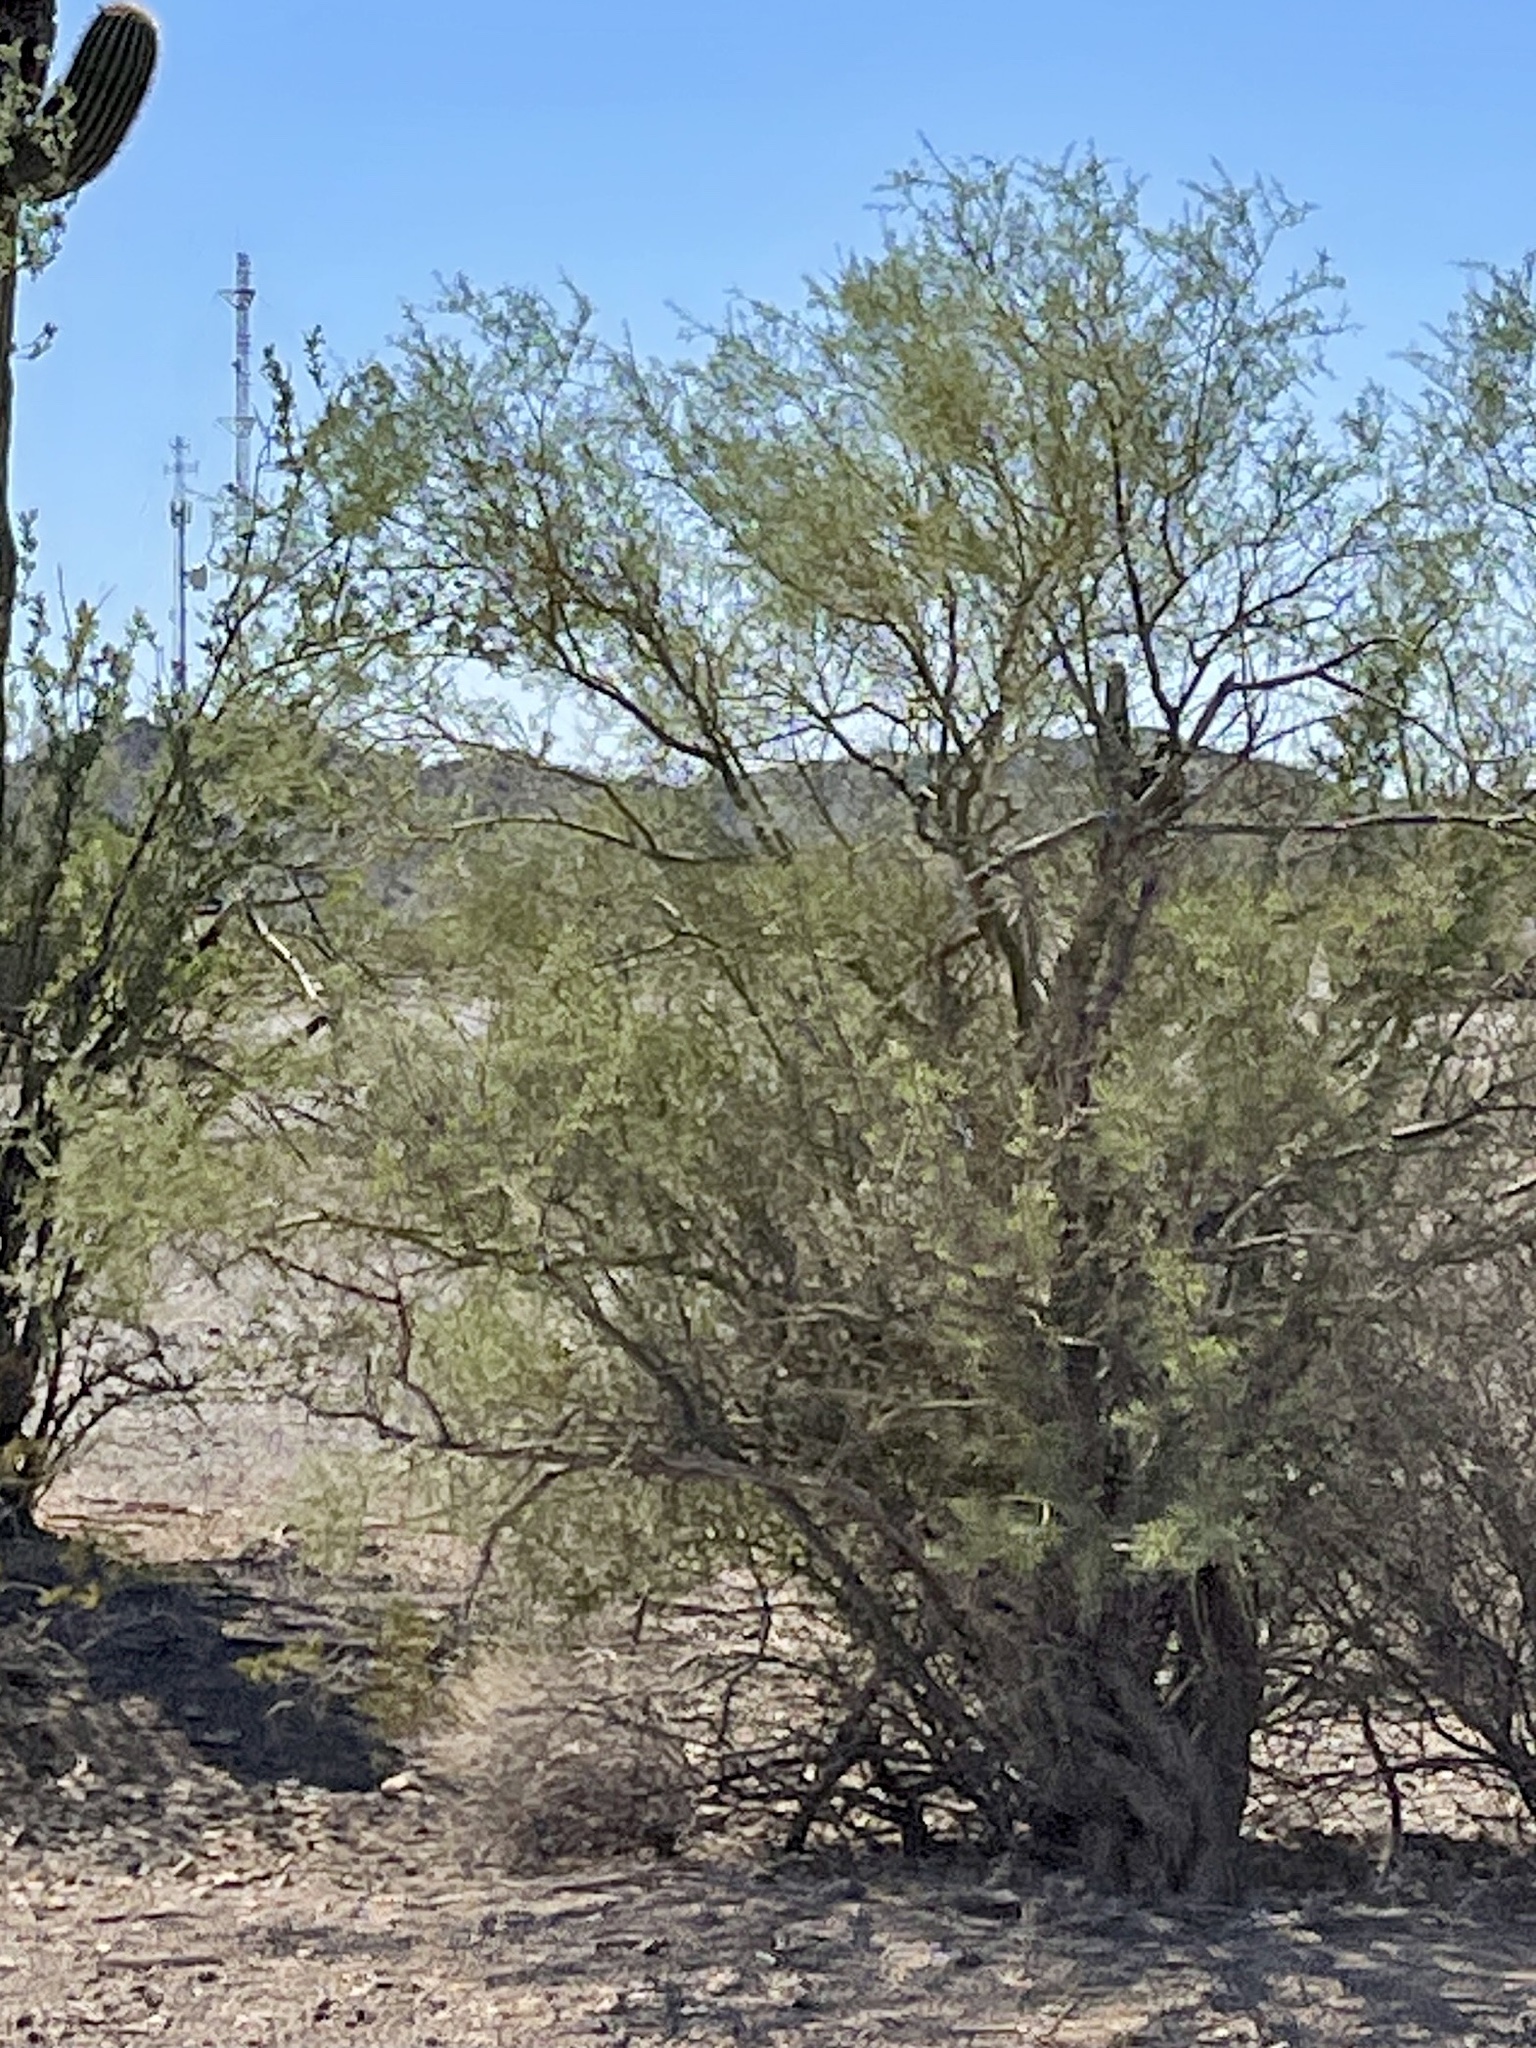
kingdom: Plantae
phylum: Tracheophyta
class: Magnoliopsida
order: Fabales
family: Fabaceae
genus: Parkinsonia
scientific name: Parkinsonia microphylla
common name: Yellow paloverde
